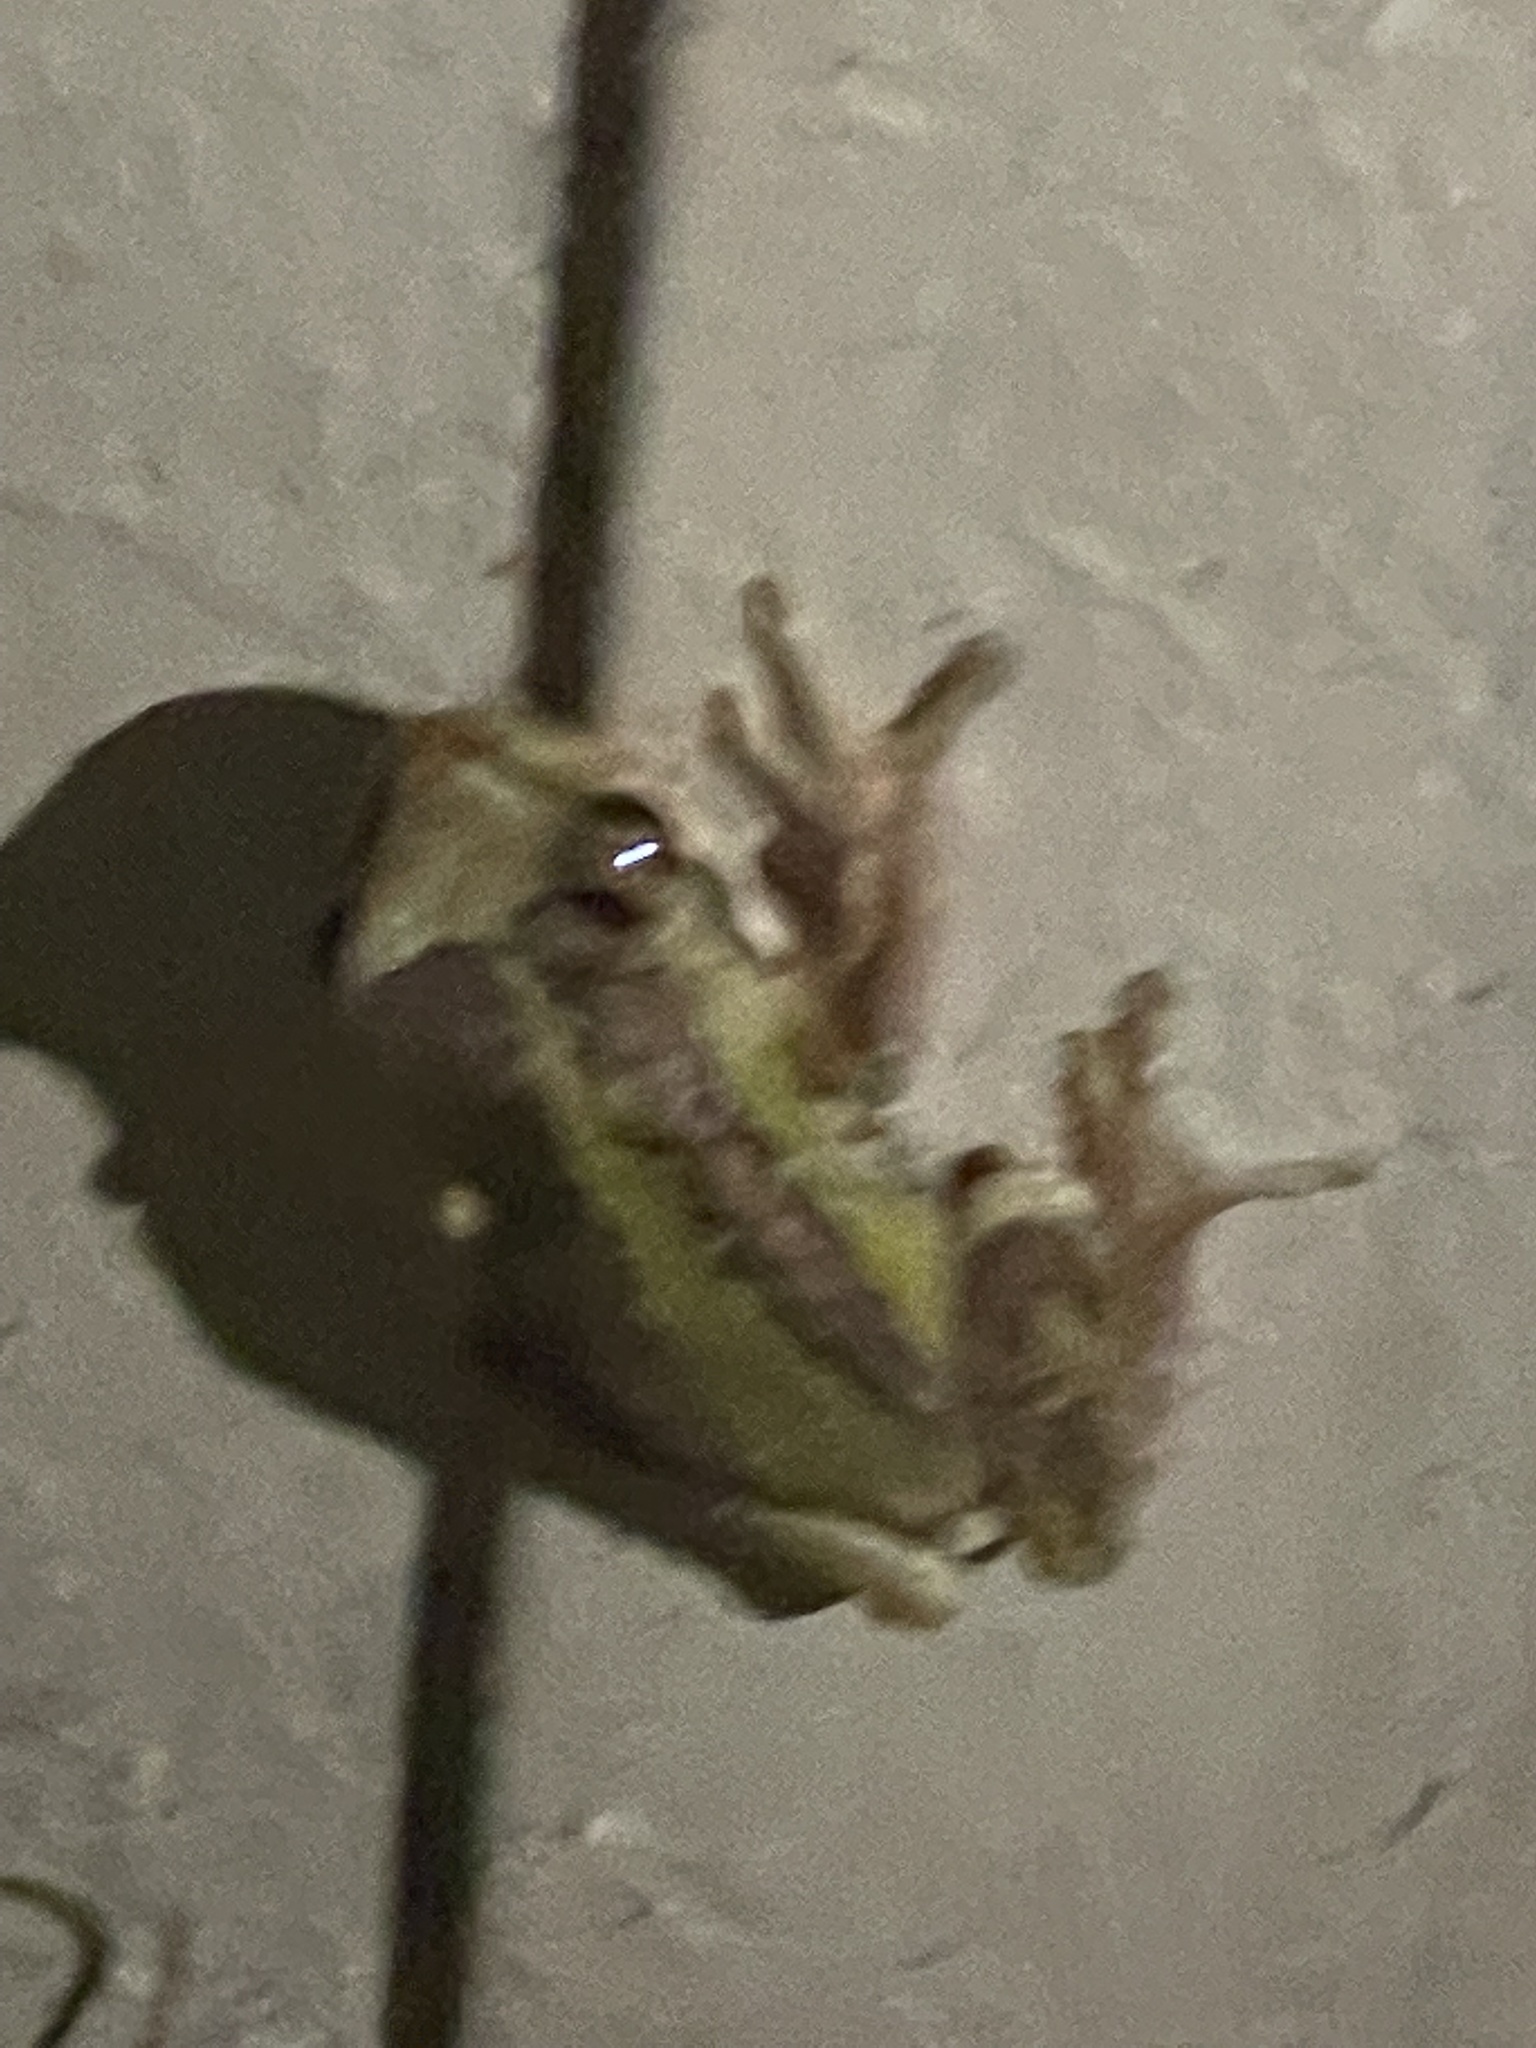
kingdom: Animalia
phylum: Chordata
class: Amphibia
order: Anura
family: Pelodryadidae
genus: Litoria
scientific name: Litoria ewingii
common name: Southern brown tree frog
